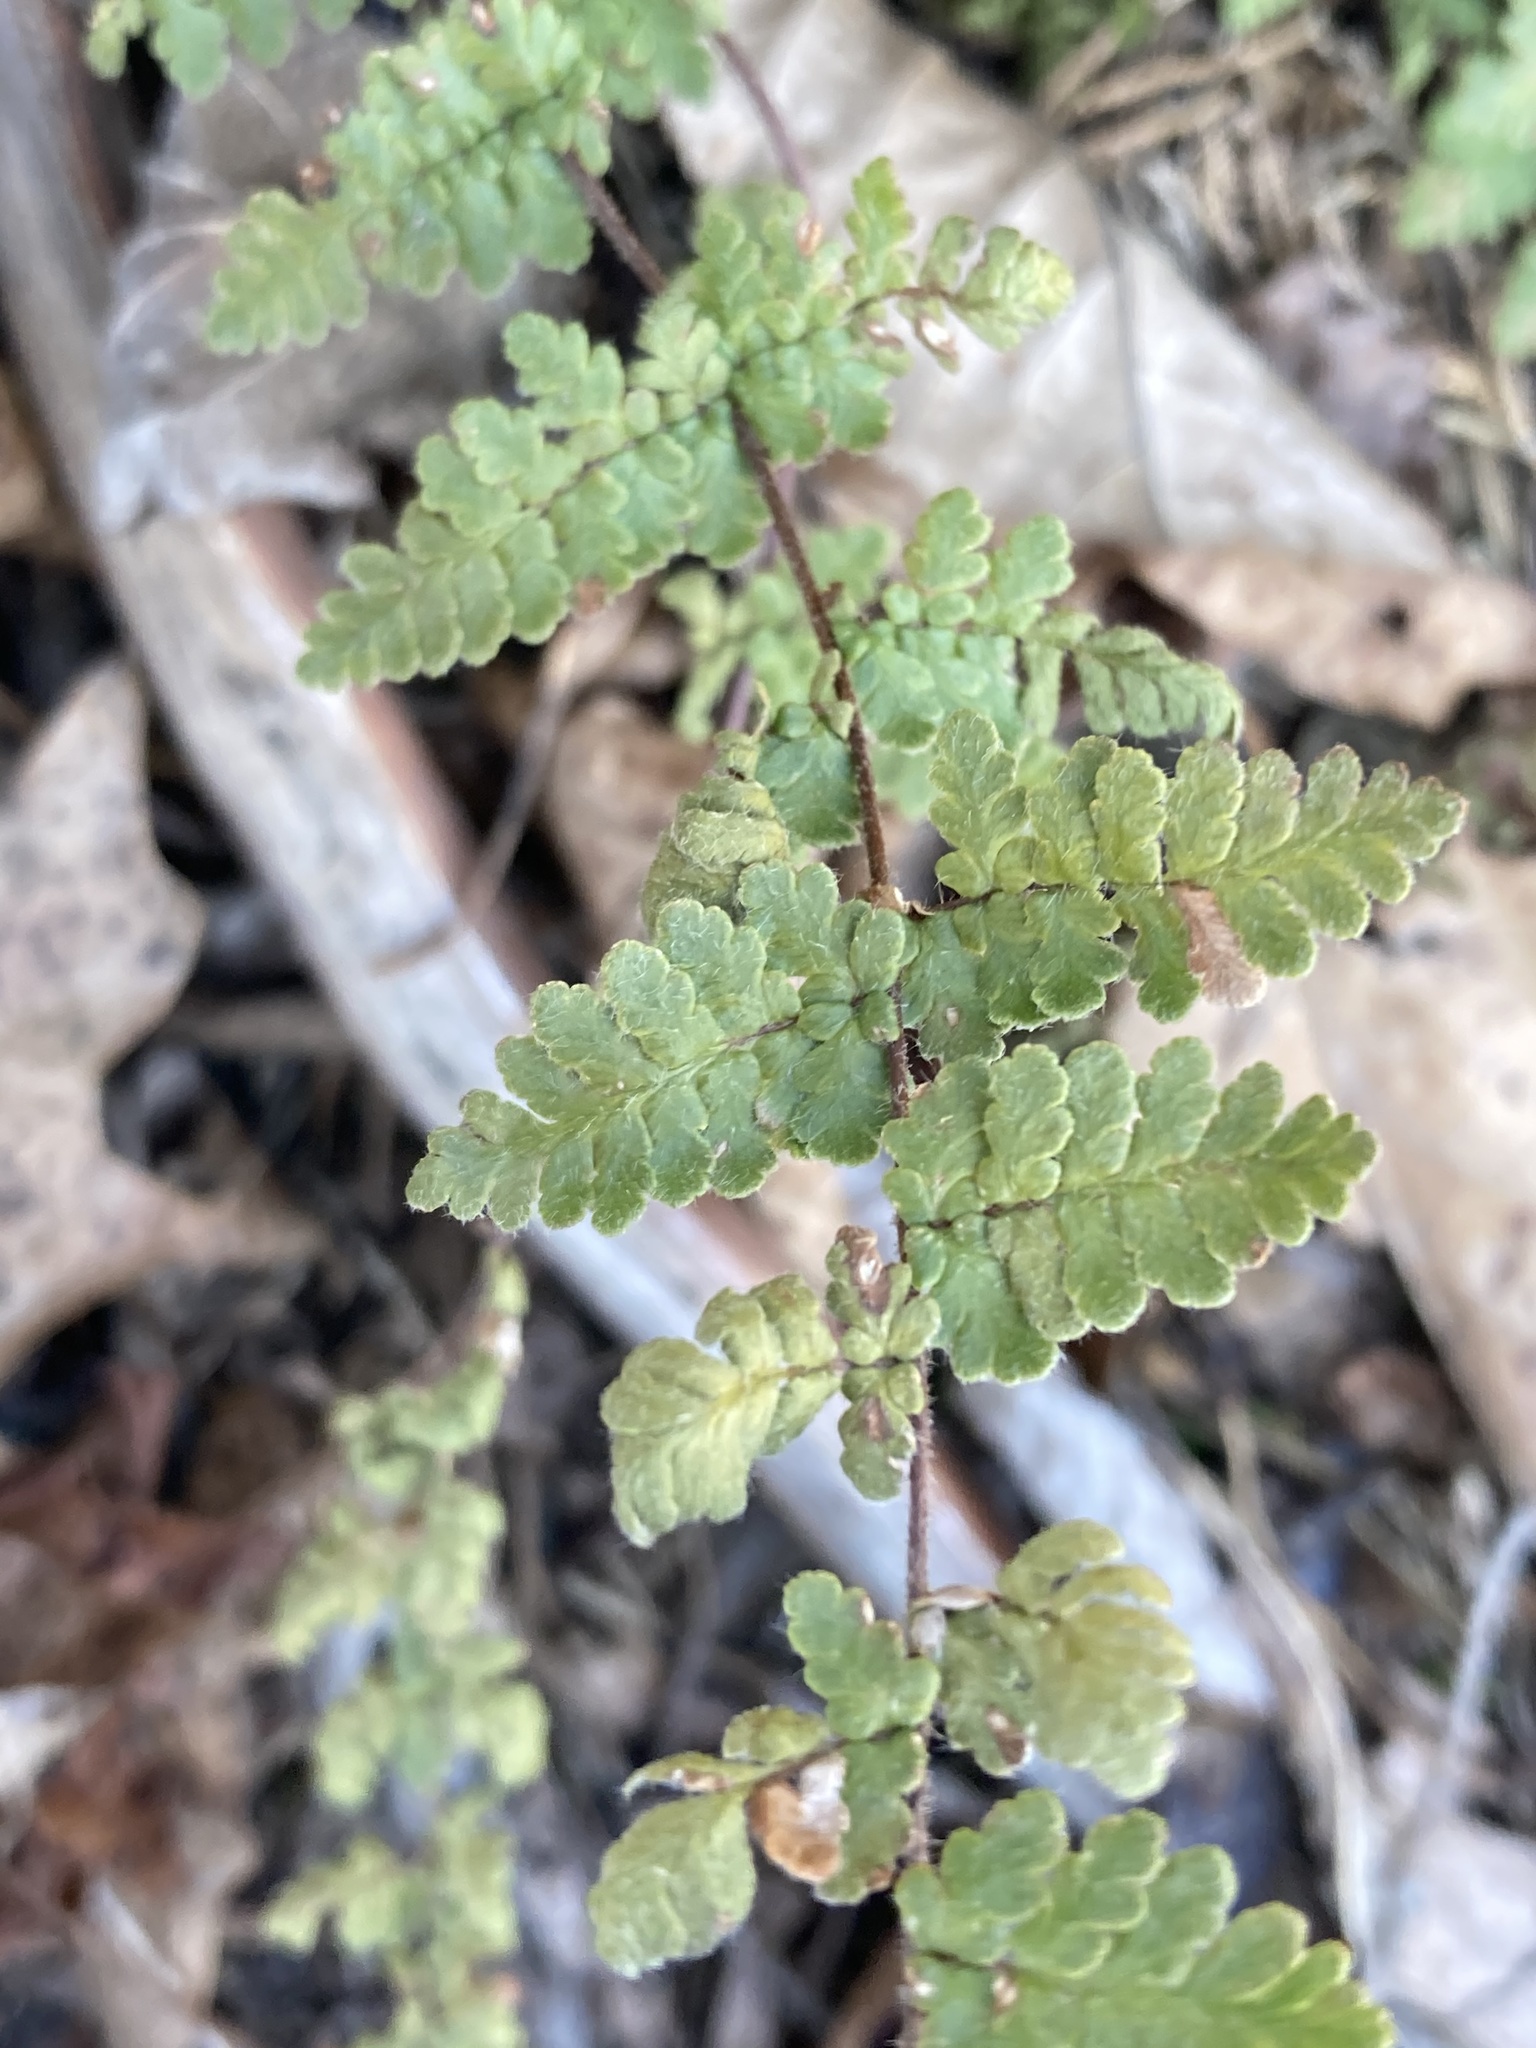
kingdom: Plantae
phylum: Tracheophyta
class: Polypodiopsida
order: Polypodiales
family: Pteridaceae
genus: Myriopteris
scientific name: Myriopteris lanosa
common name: Hairy lip fern
